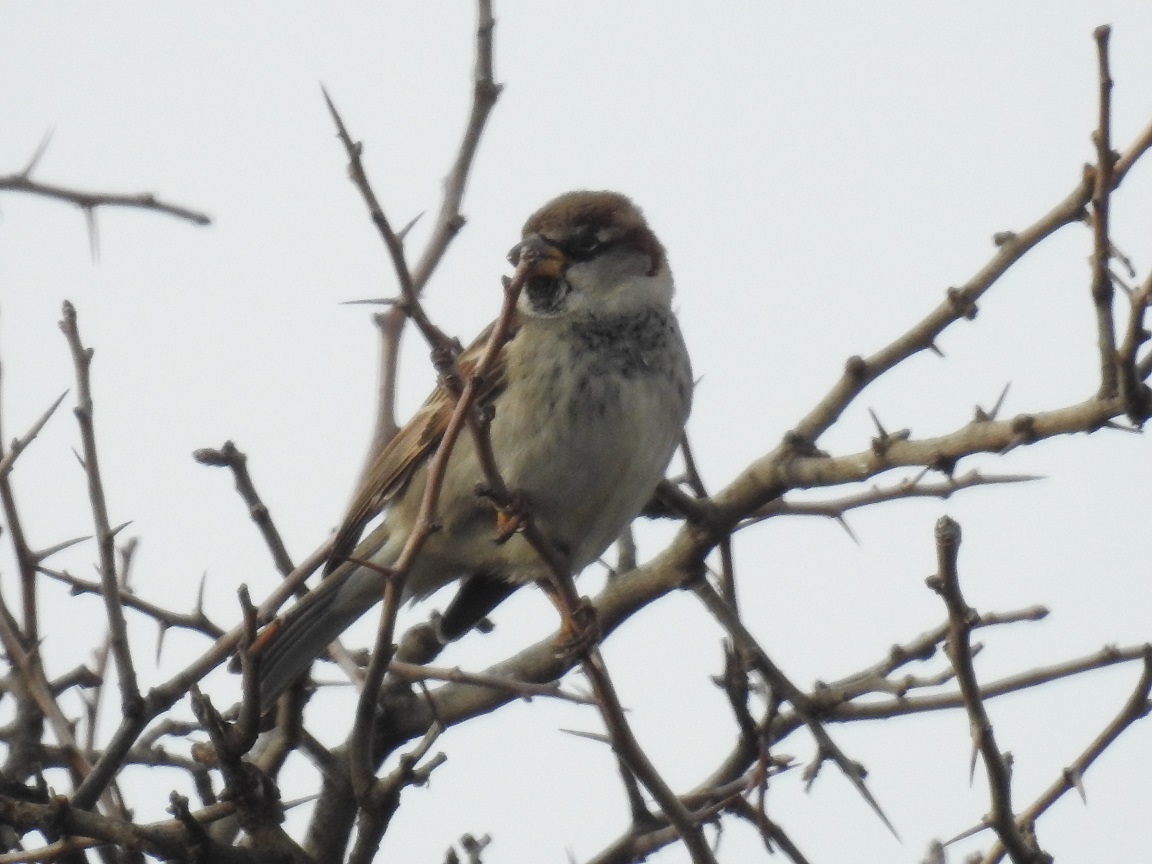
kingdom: Animalia
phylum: Chordata
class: Aves
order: Passeriformes
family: Passeridae
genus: Passer
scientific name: Passer domesticus
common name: House sparrow
